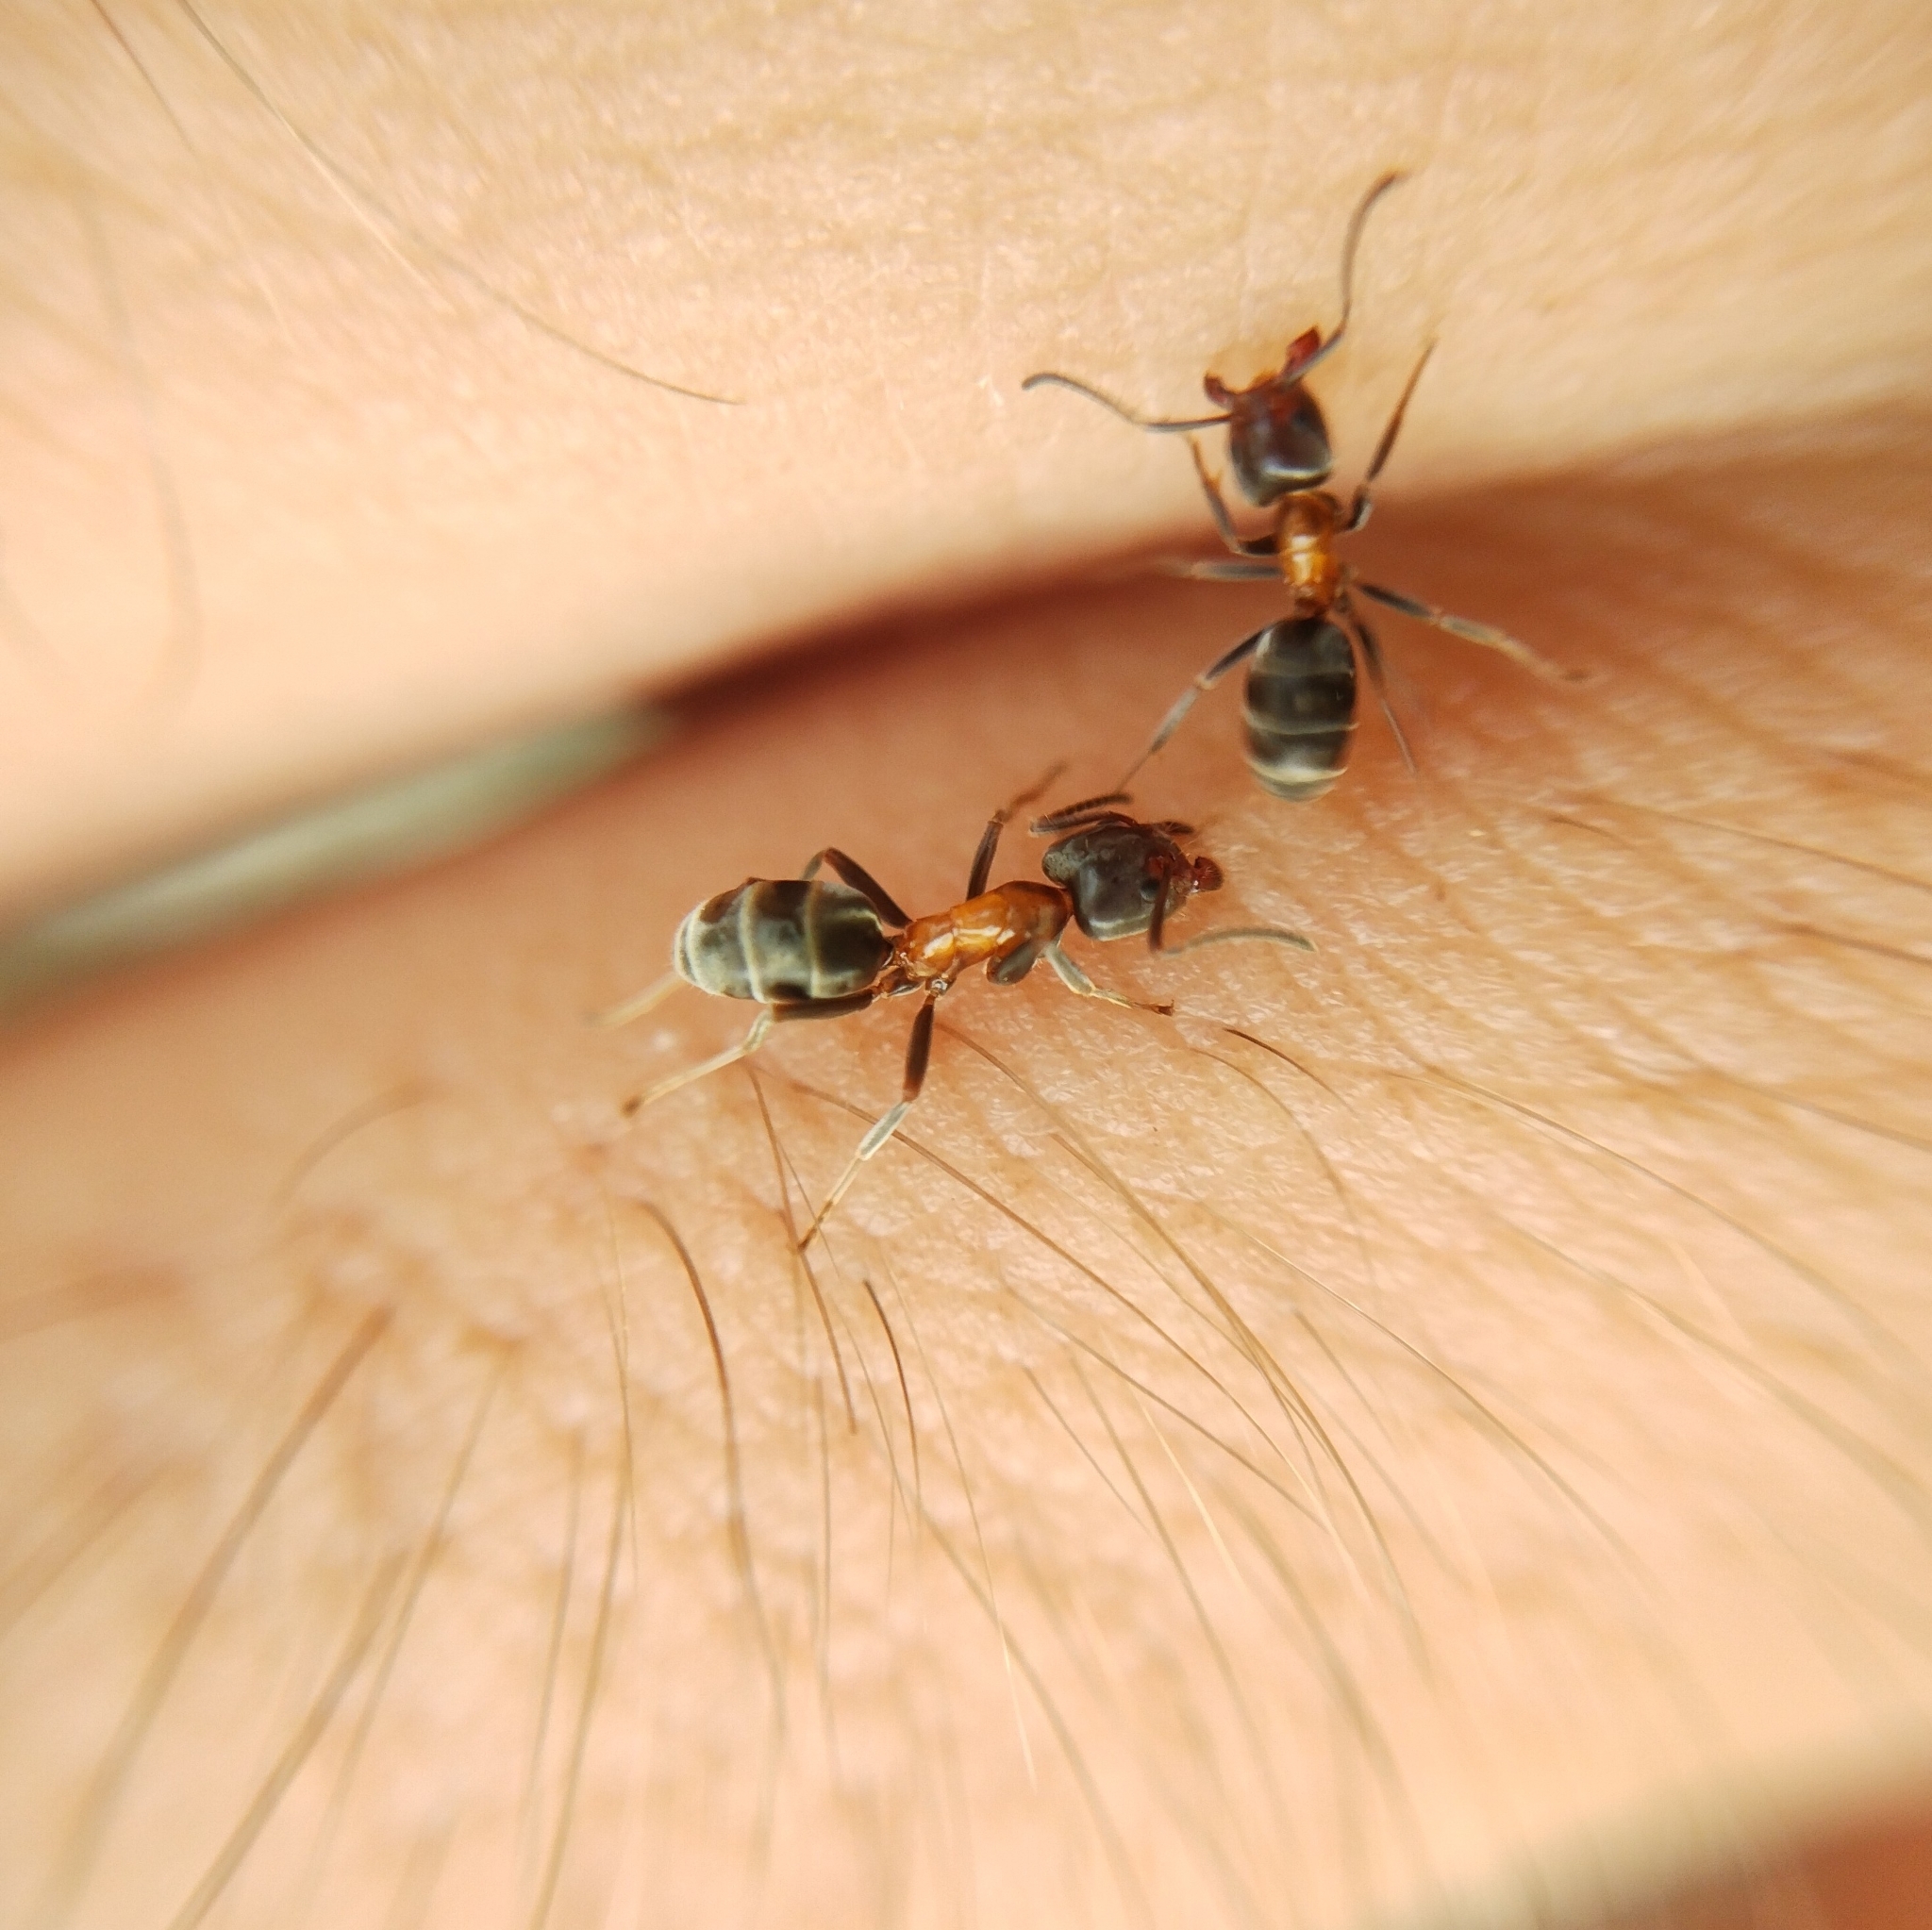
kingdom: Animalia
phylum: Arthropoda
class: Insecta
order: Hymenoptera
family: Formicidae
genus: Liometopum
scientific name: Liometopum microcephalum
